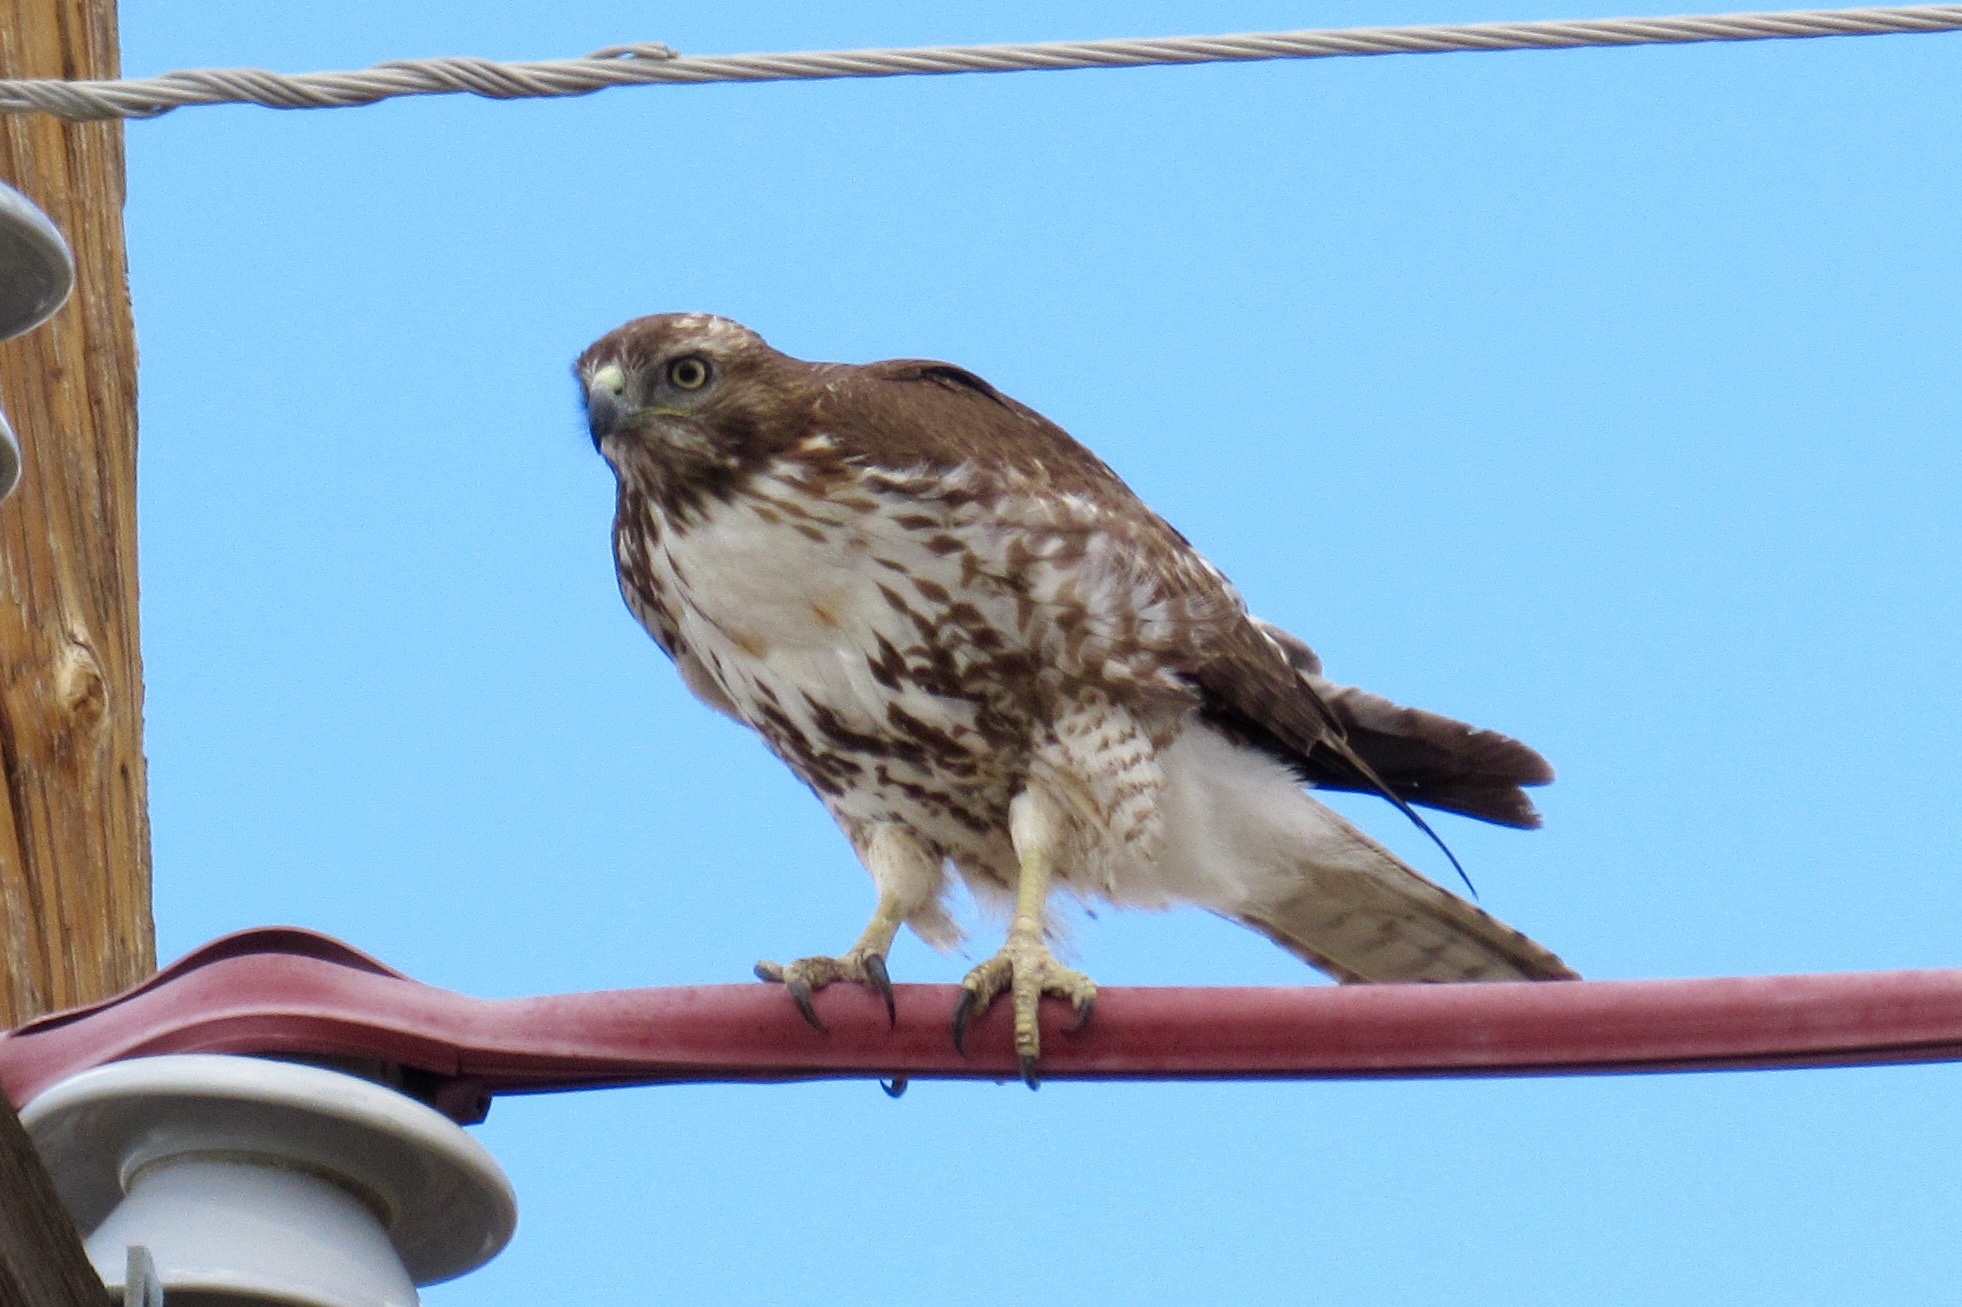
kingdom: Animalia
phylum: Chordata
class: Aves
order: Accipitriformes
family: Accipitridae
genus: Buteo
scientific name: Buteo jamaicensis
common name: Red-tailed hawk
